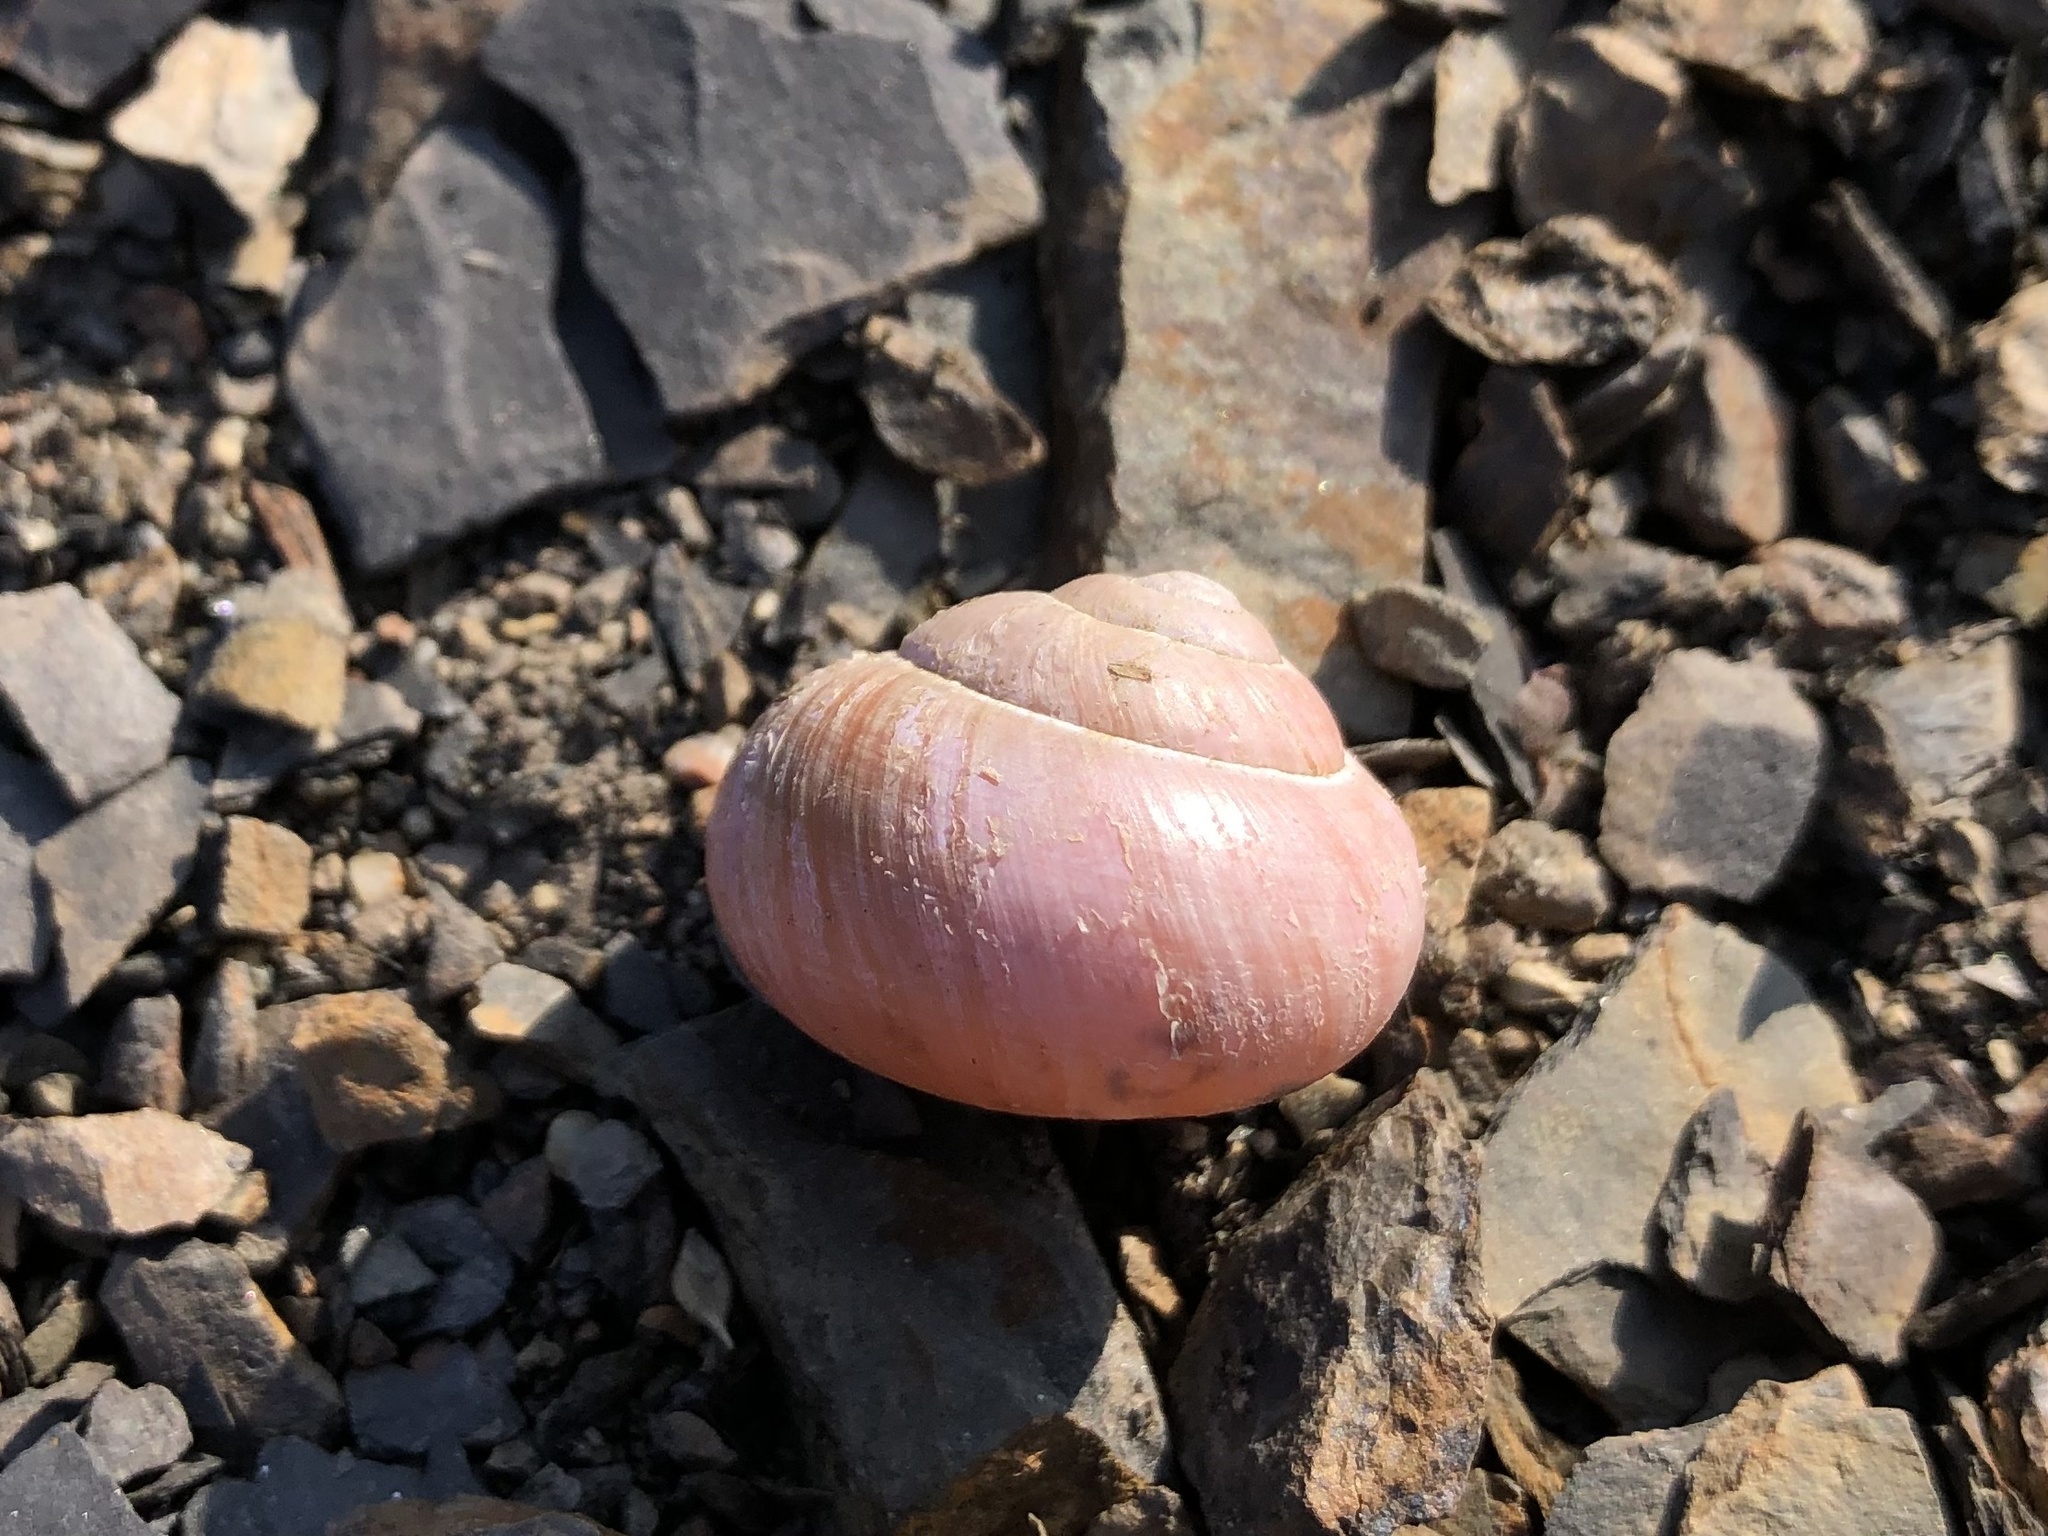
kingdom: Animalia
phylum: Mollusca
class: Gastropoda
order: Stylommatophora
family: Helicidae
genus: Cepaea
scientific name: Cepaea nemoralis
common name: Grovesnail
